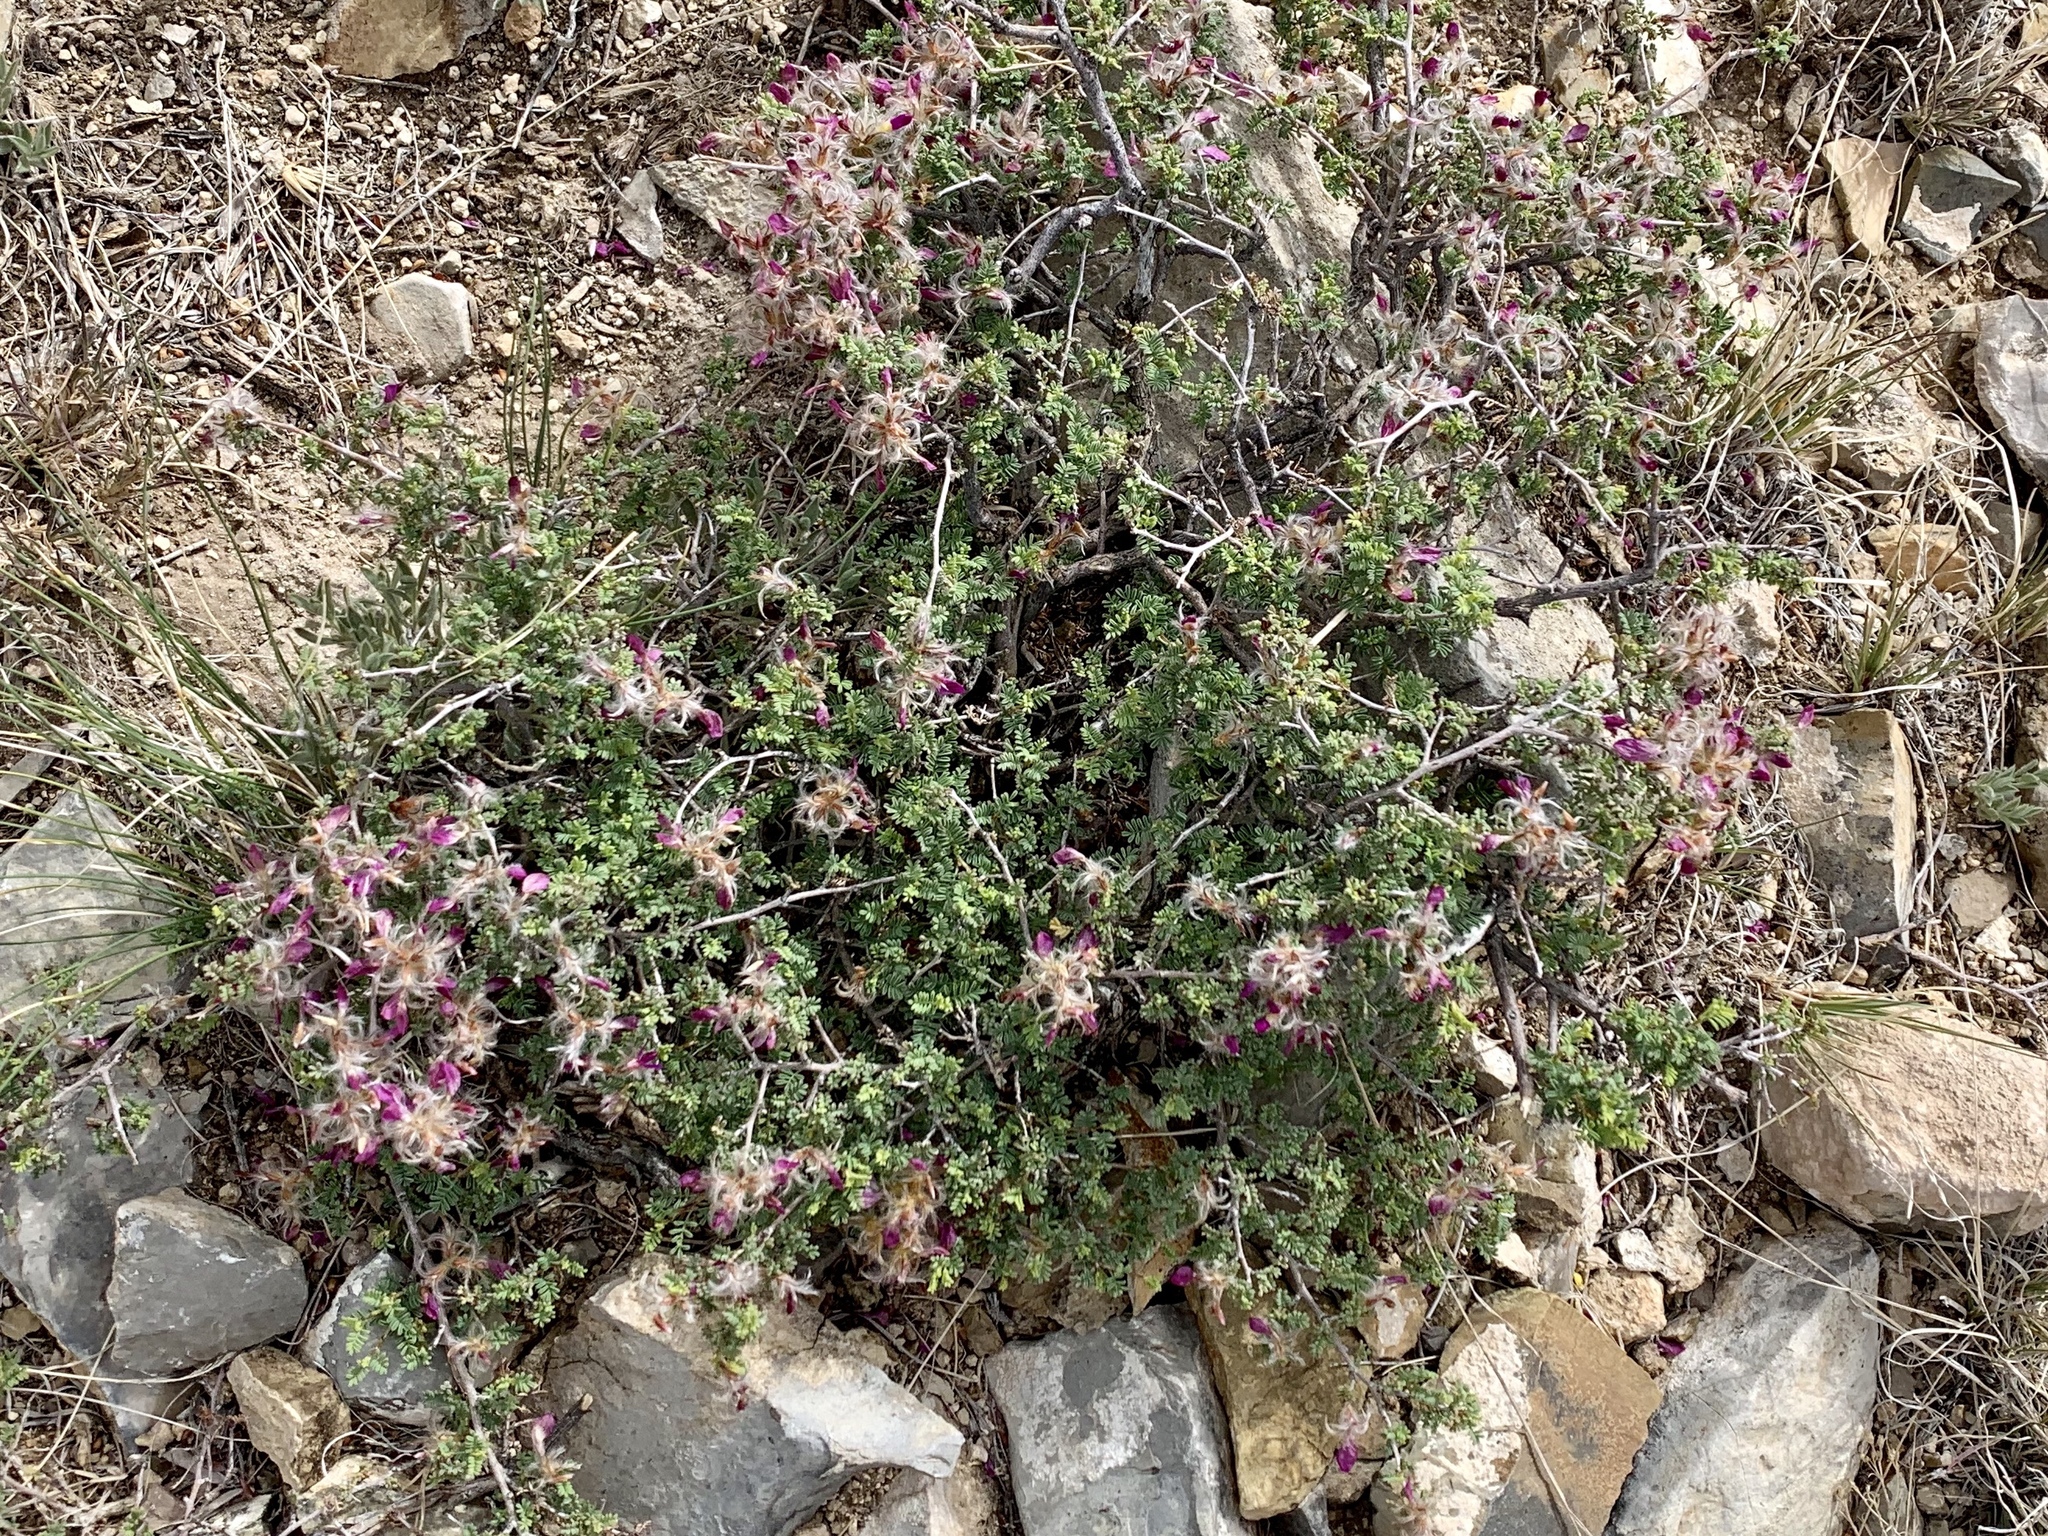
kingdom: Plantae
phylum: Tracheophyta
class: Magnoliopsida
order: Fabales
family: Fabaceae
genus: Dalea
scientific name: Dalea formosa
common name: Feather-plume dalea
